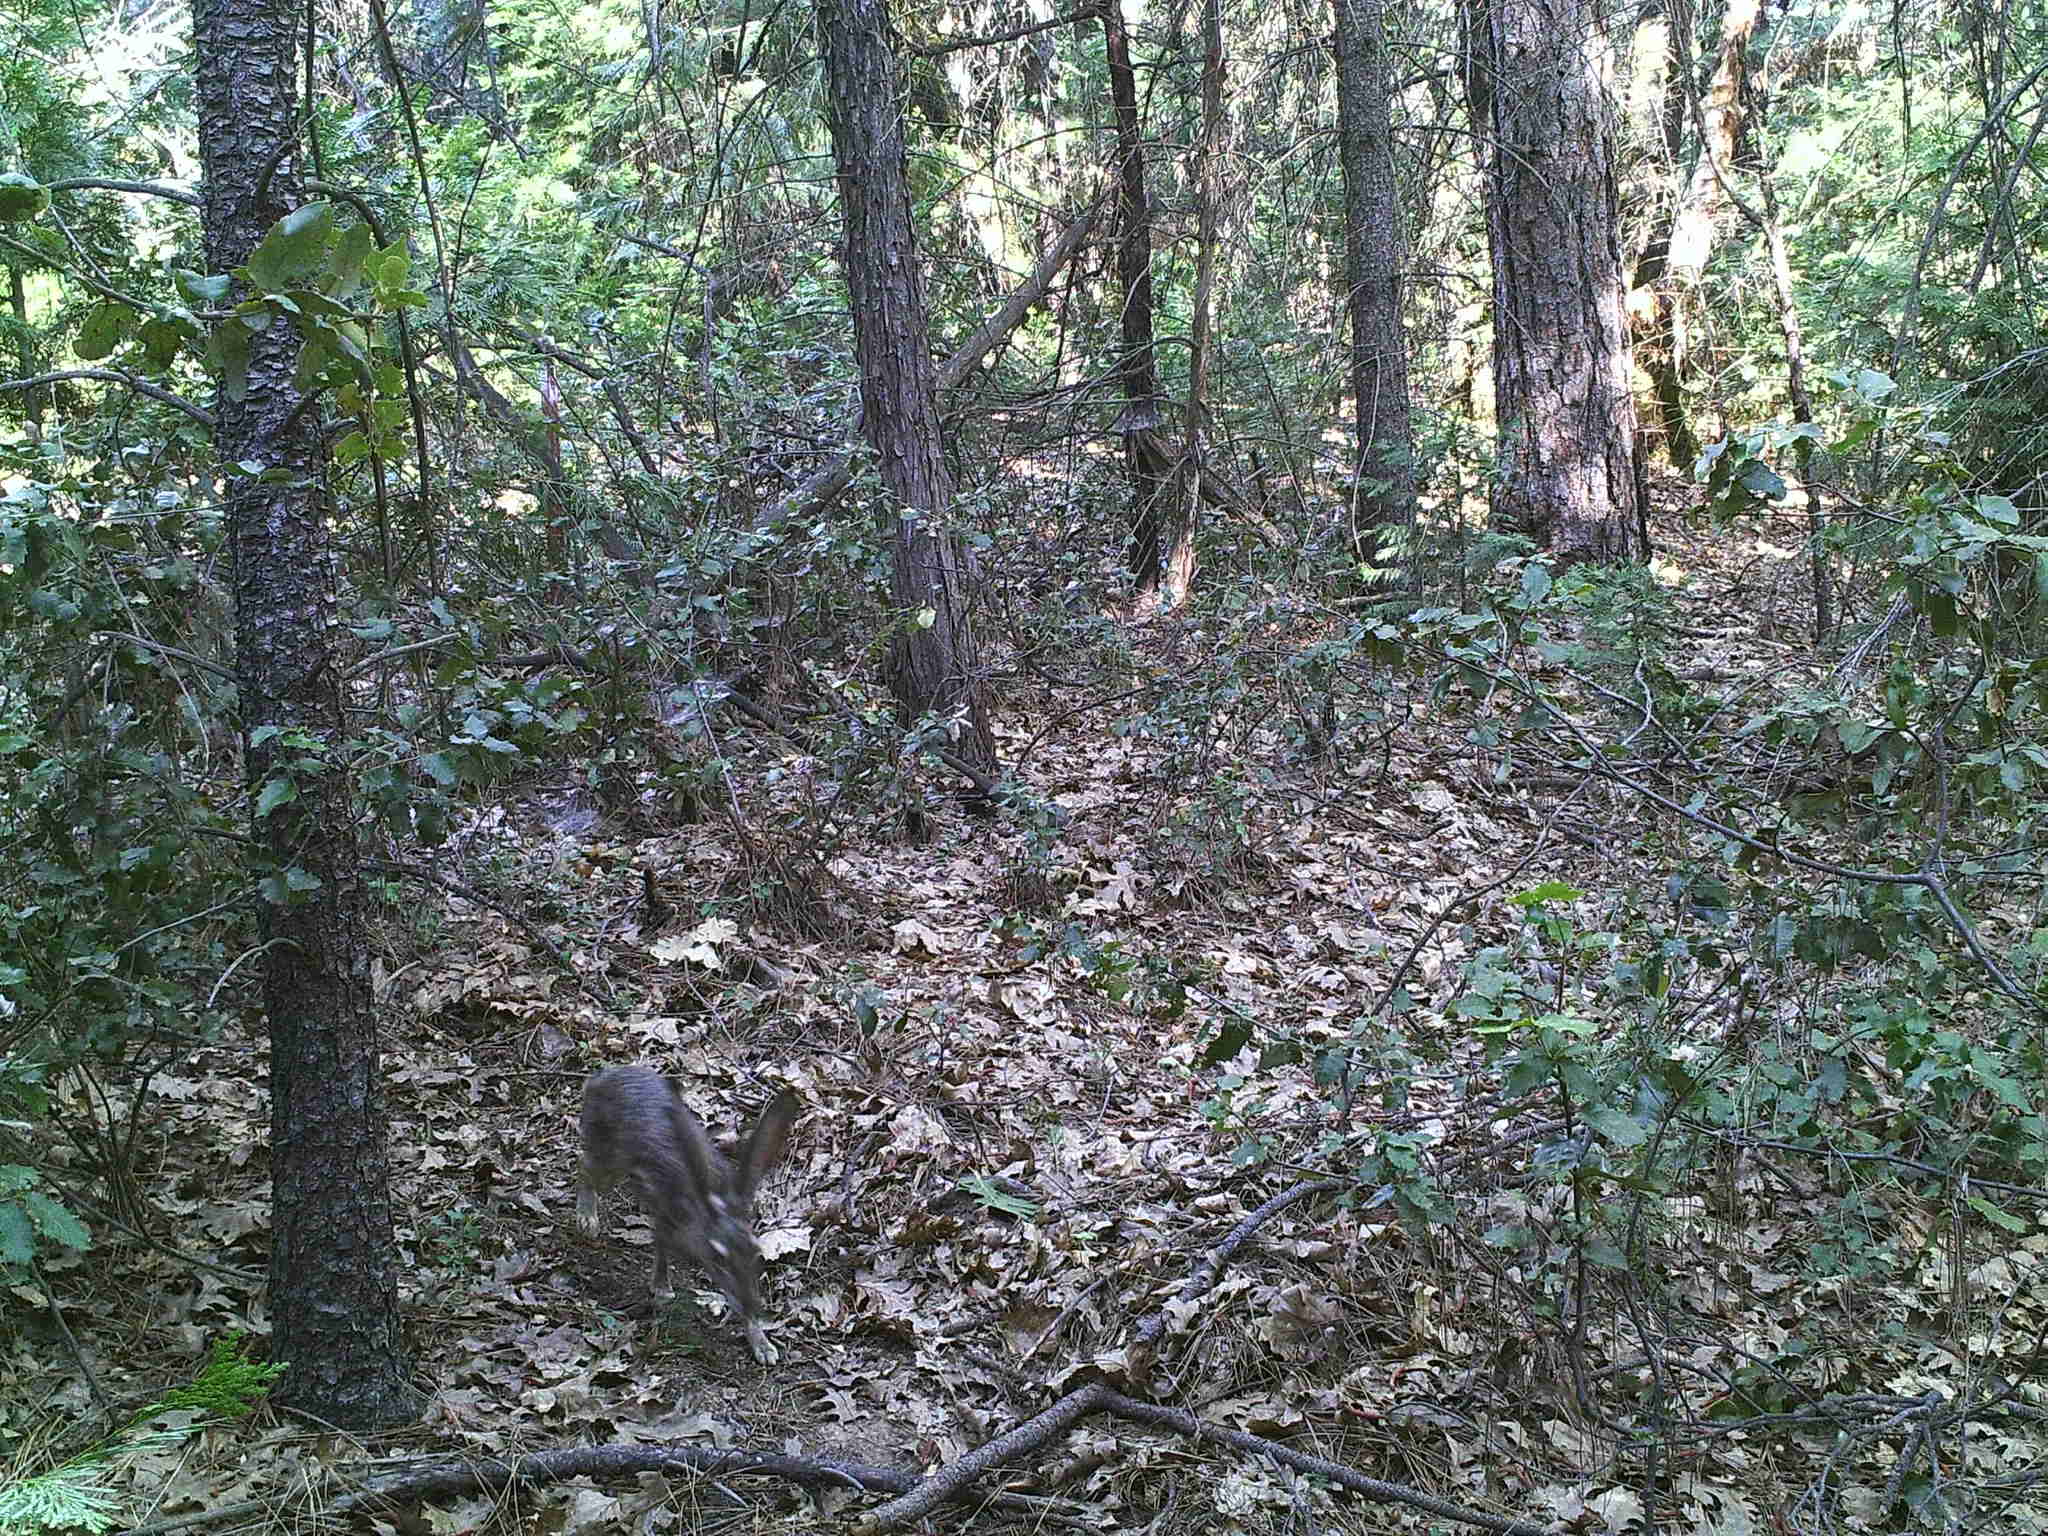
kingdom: Animalia
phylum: Chordata
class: Mammalia
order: Lagomorpha
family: Leporidae
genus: Lepus
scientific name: Lepus californicus
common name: Black-tailed jackrabbit
